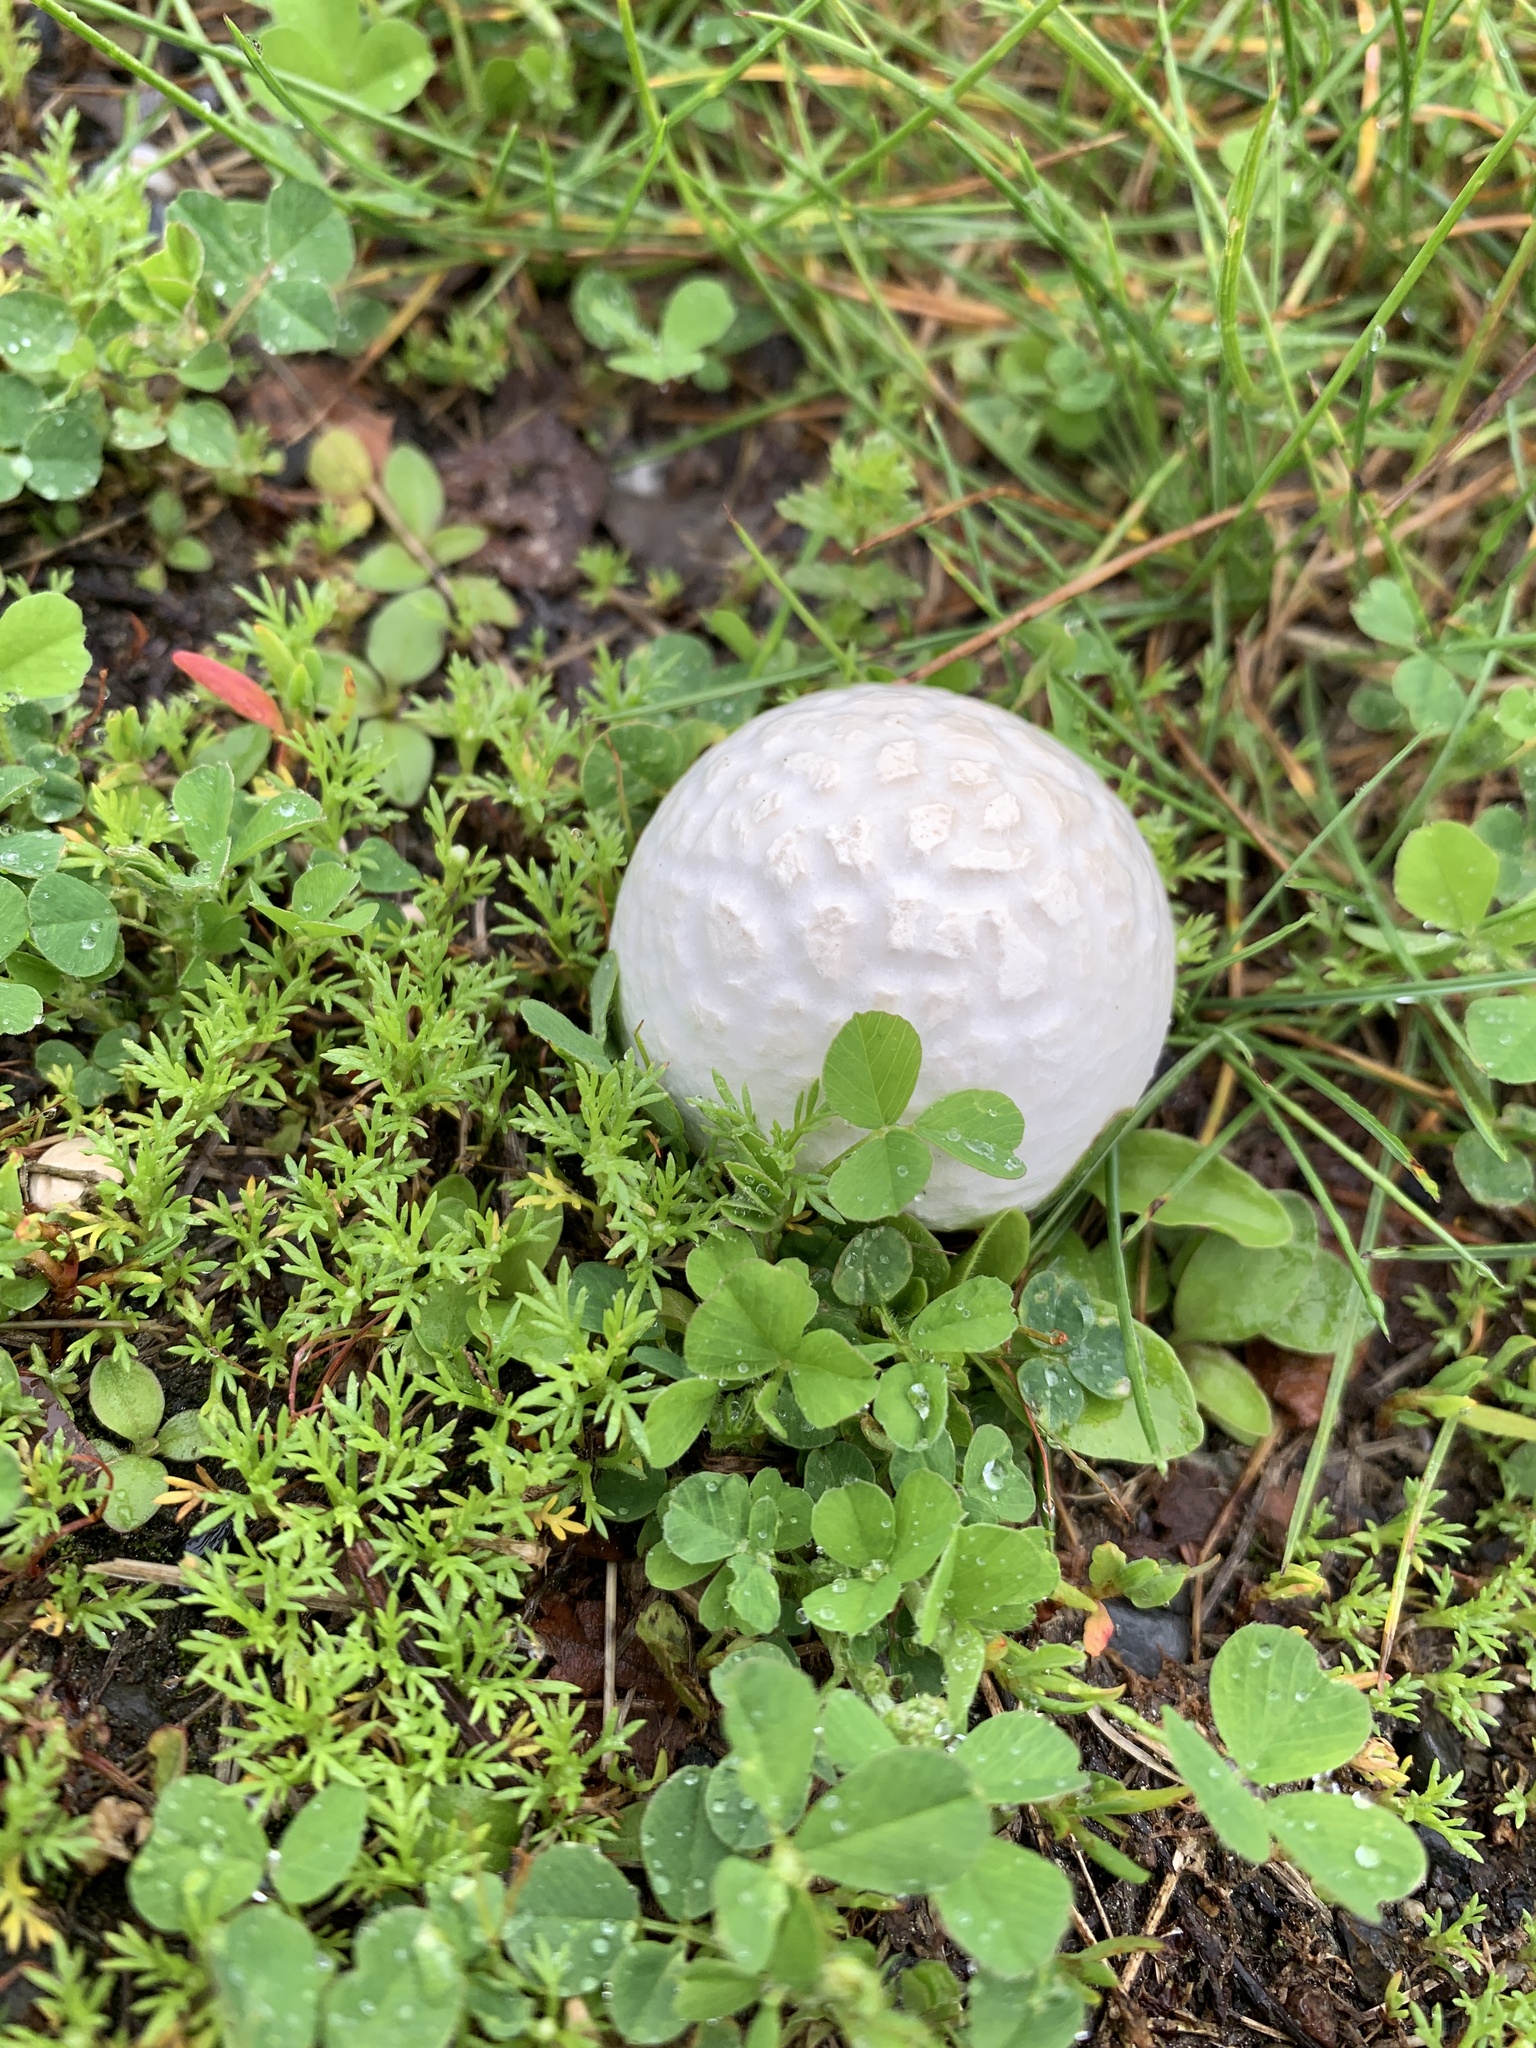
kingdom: Fungi
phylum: Basidiomycota
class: Agaricomycetes
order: Agaricales
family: Lycoperdaceae
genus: Lycoperdon
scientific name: Lycoperdon perlatum
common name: Common puffball
